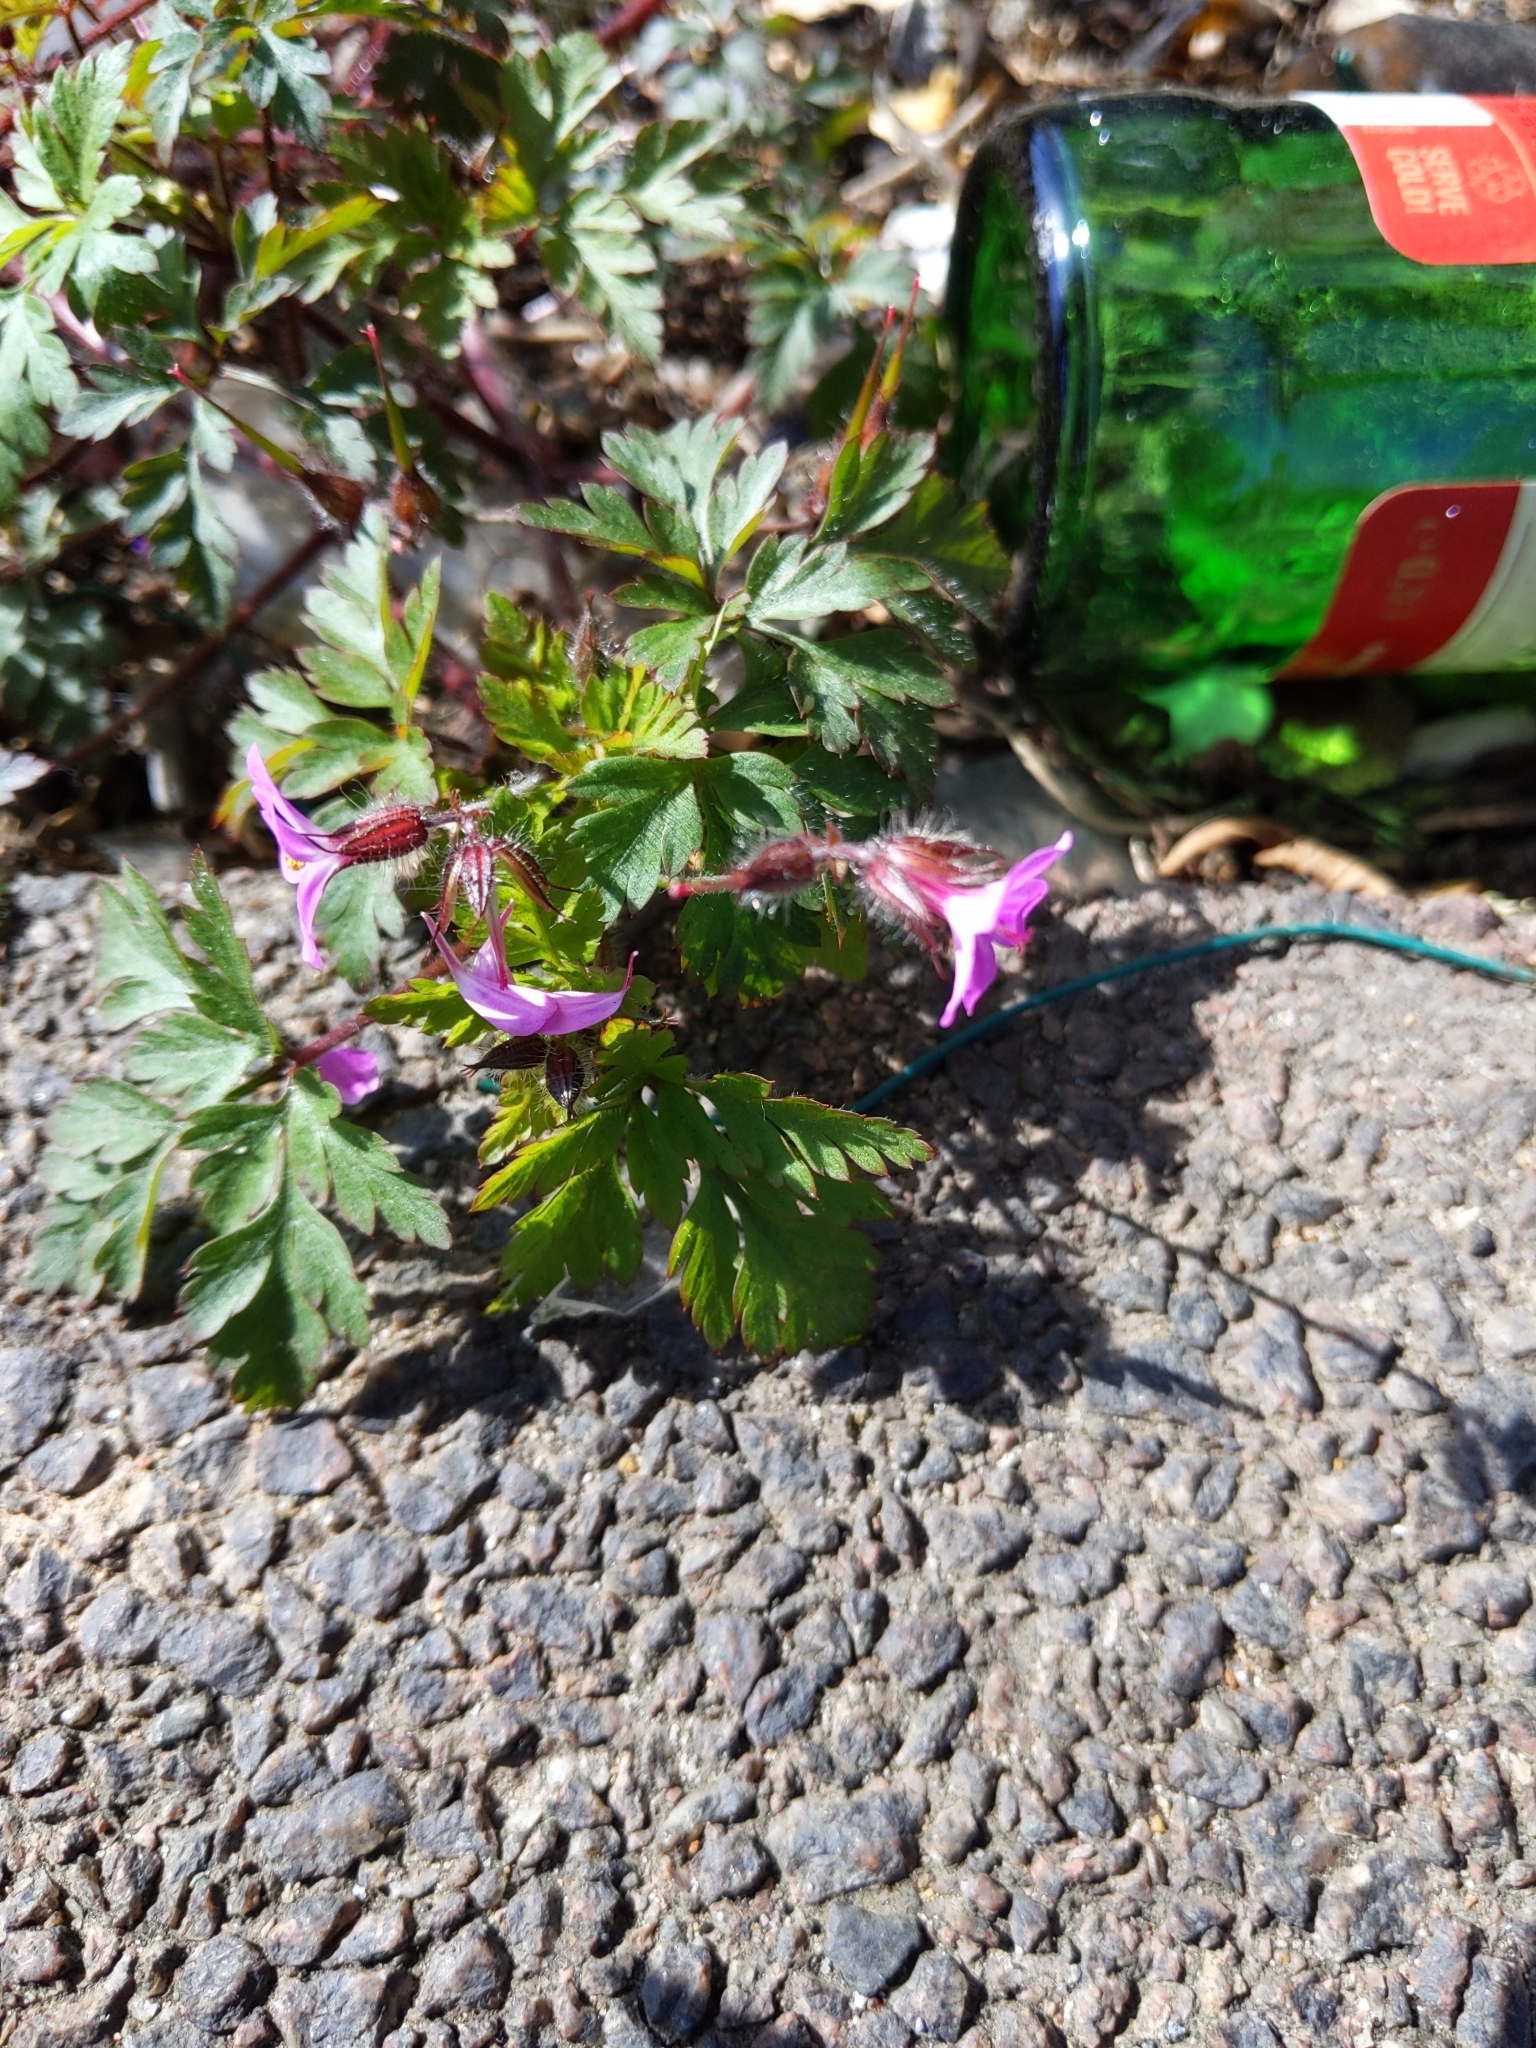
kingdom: Plantae
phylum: Tracheophyta
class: Magnoliopsida
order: Geraniales
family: Geraniaceae
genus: Geranium
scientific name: Geranium robertianum
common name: Herb-robert
